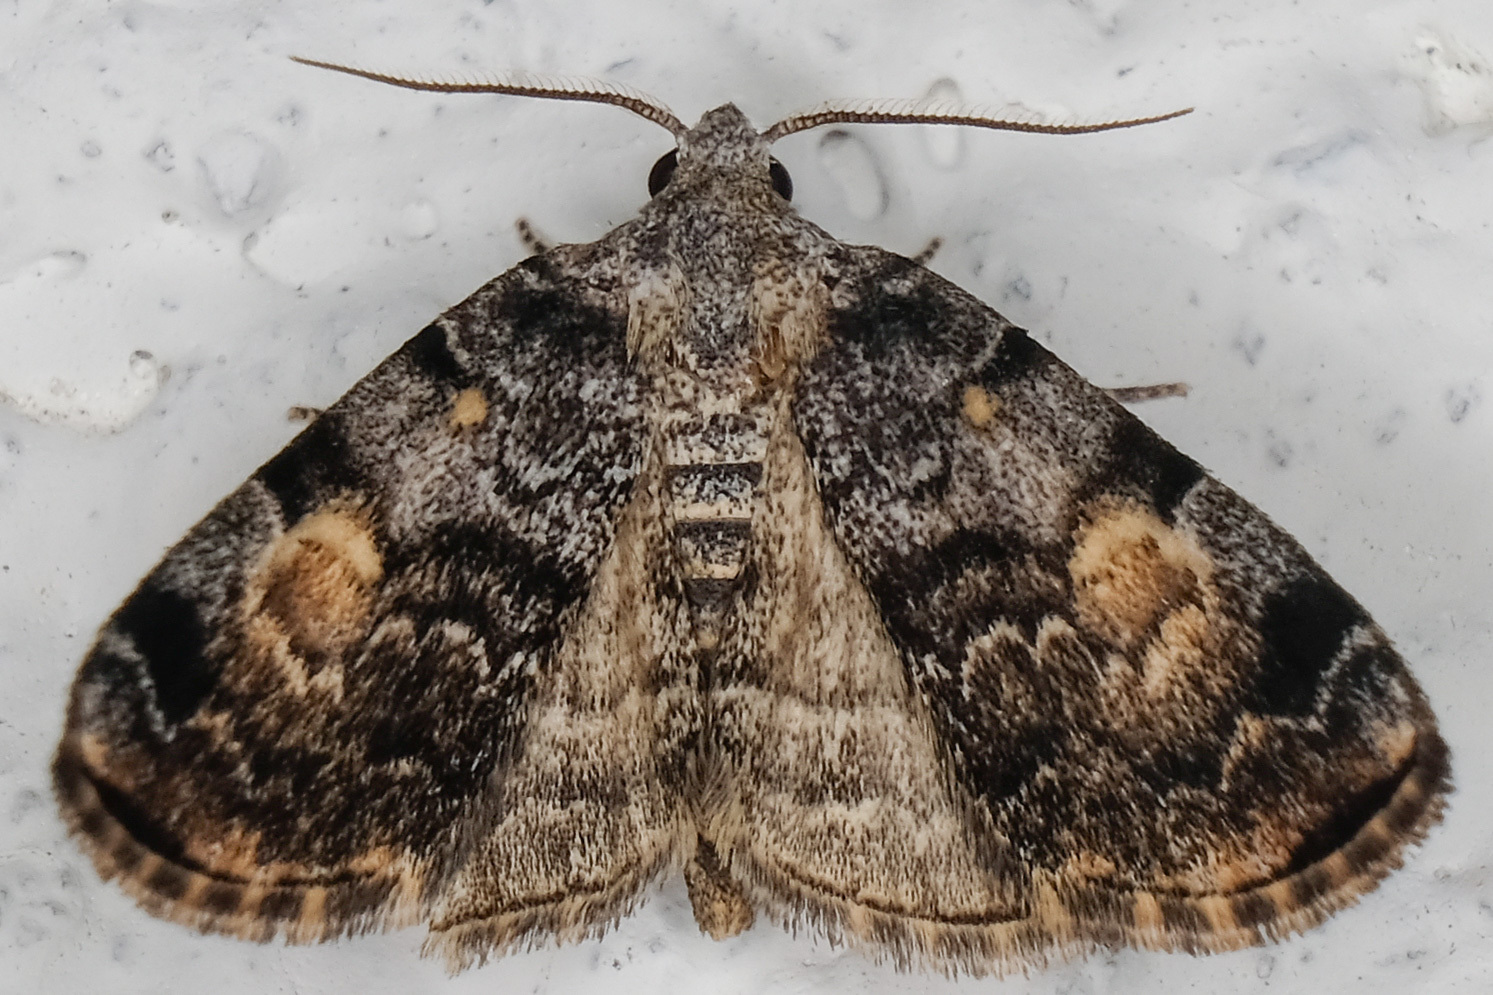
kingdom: Animalia
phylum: Arthropoda
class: Insecta
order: Lepidoptera
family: Erebidae
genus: Idia
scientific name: Idia americalis
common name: American idia moth
